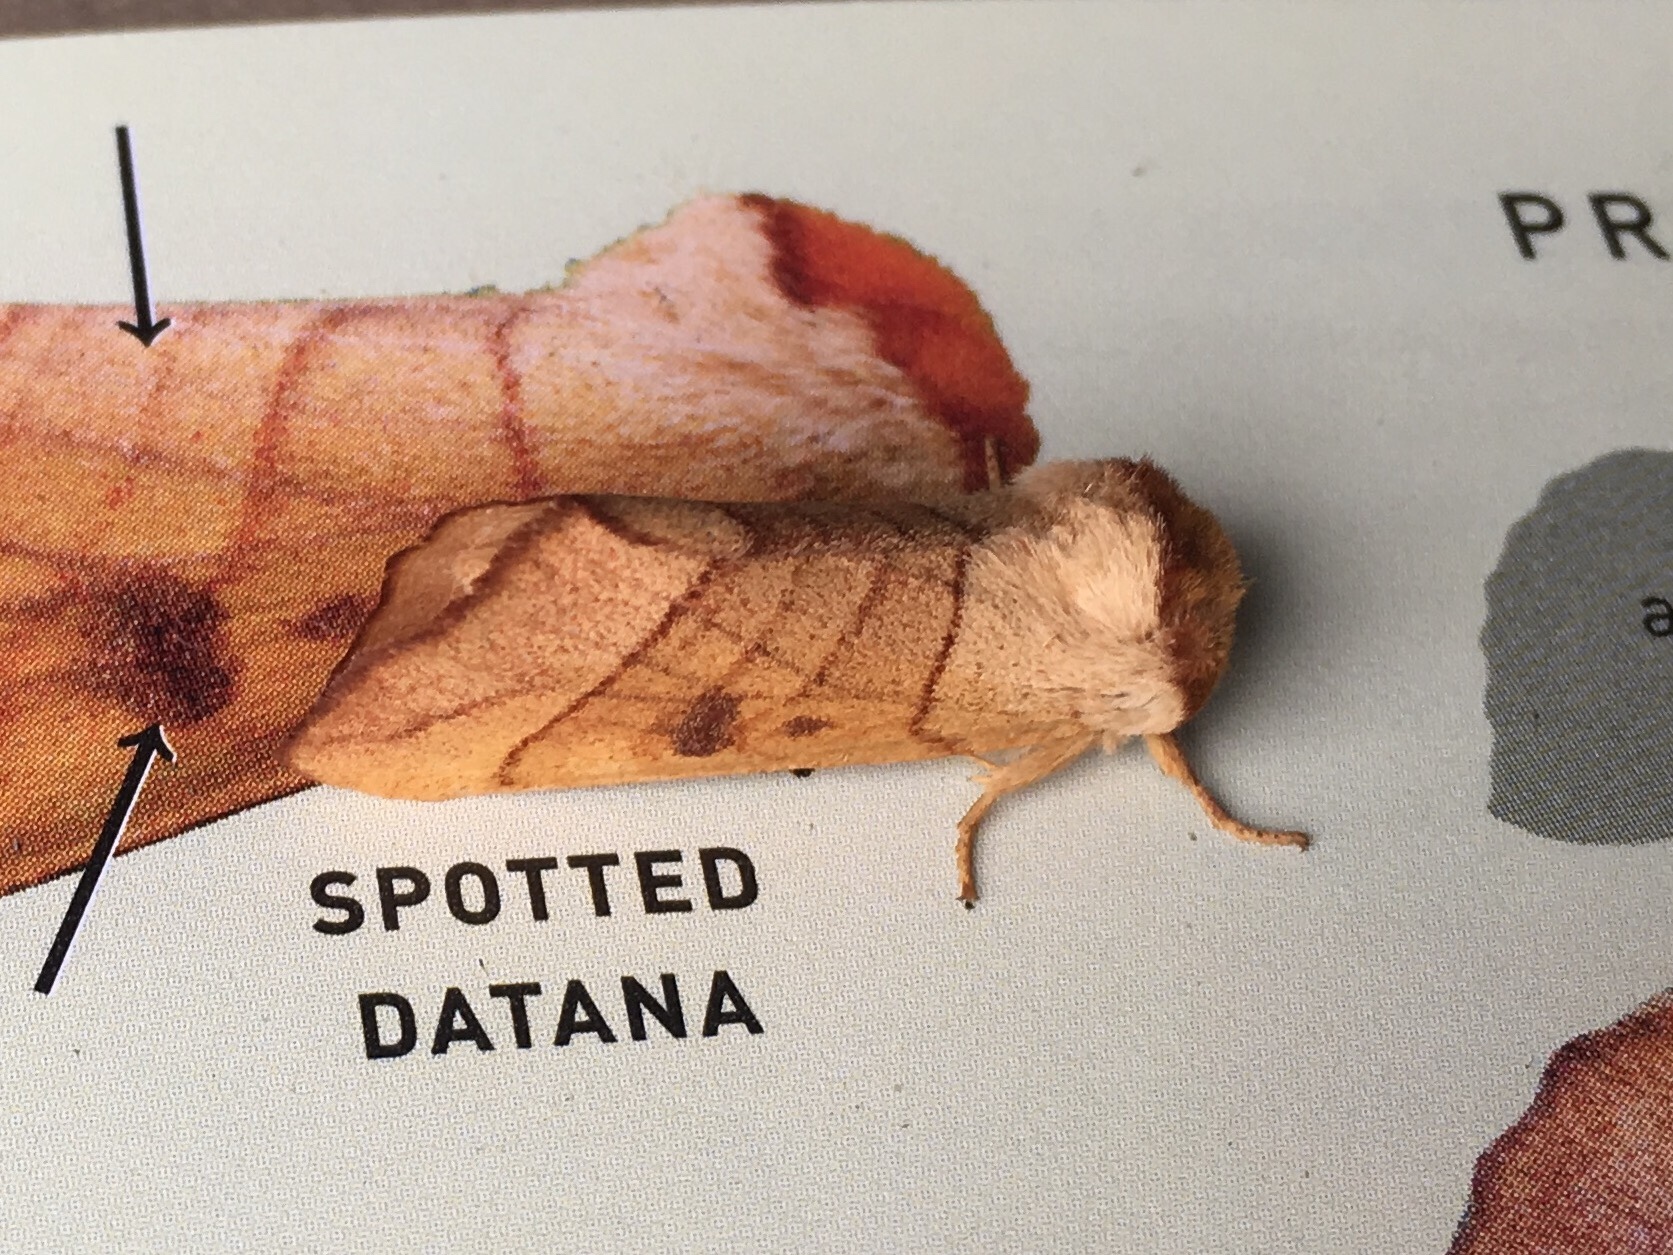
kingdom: Animalia
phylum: Arthropoda
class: Insecta
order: Lepidoptera
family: Notodontidae
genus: Datana
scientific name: Datana perspicua
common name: Spotted datana
